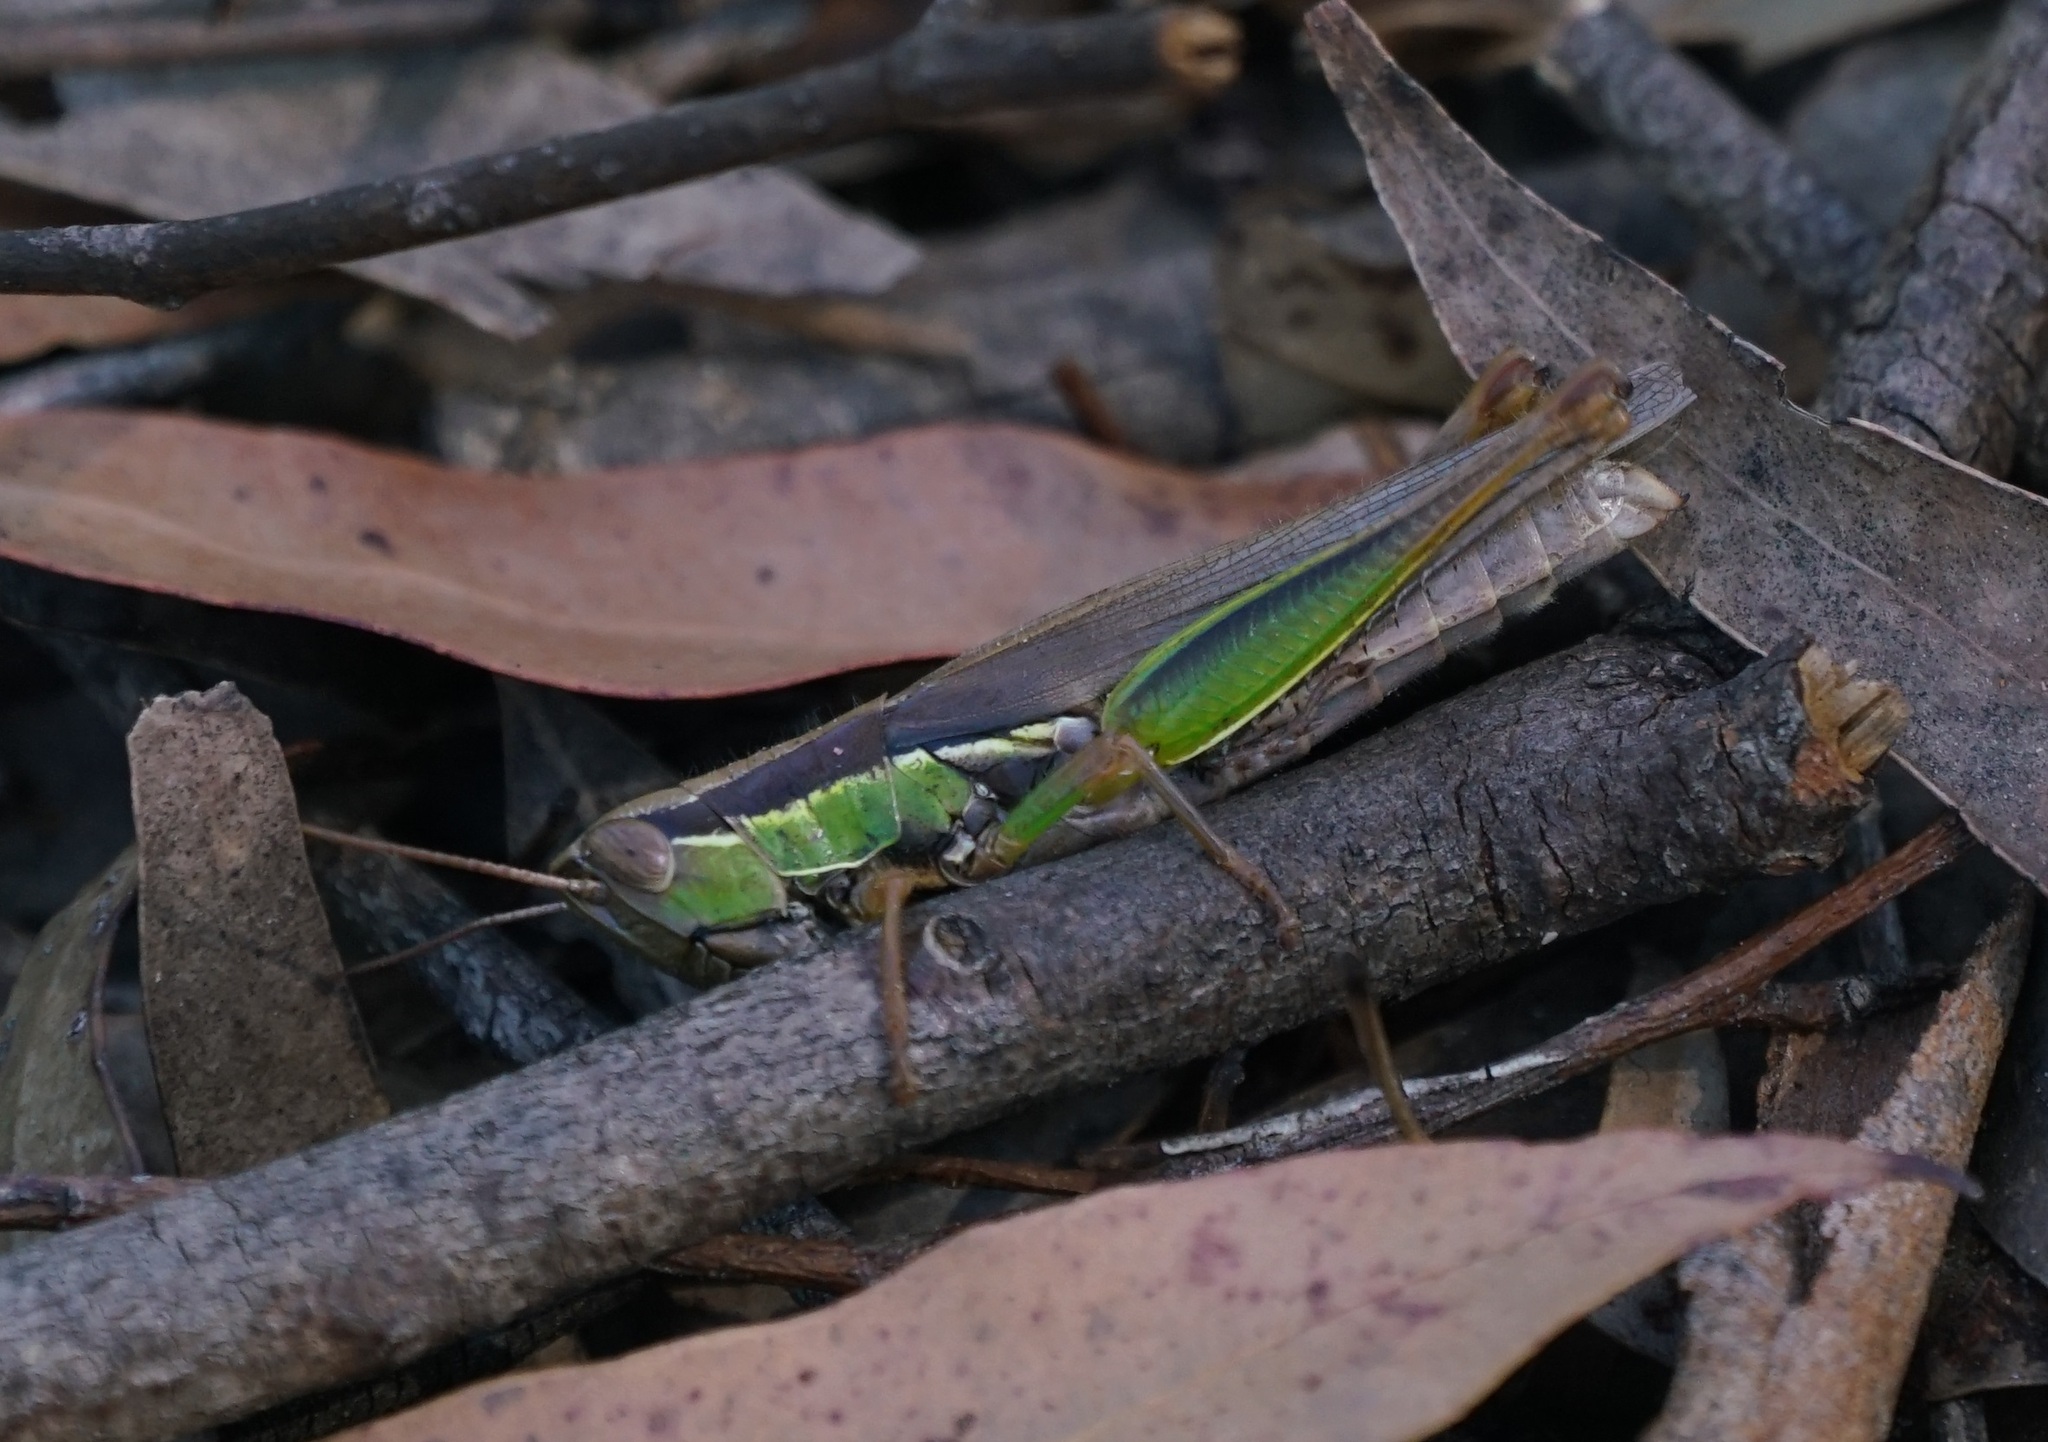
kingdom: Animalia
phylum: Arthropoda
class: Insecta
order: Orthoptera
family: Acrididae
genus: Bermius
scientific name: Bermius brachycerus
